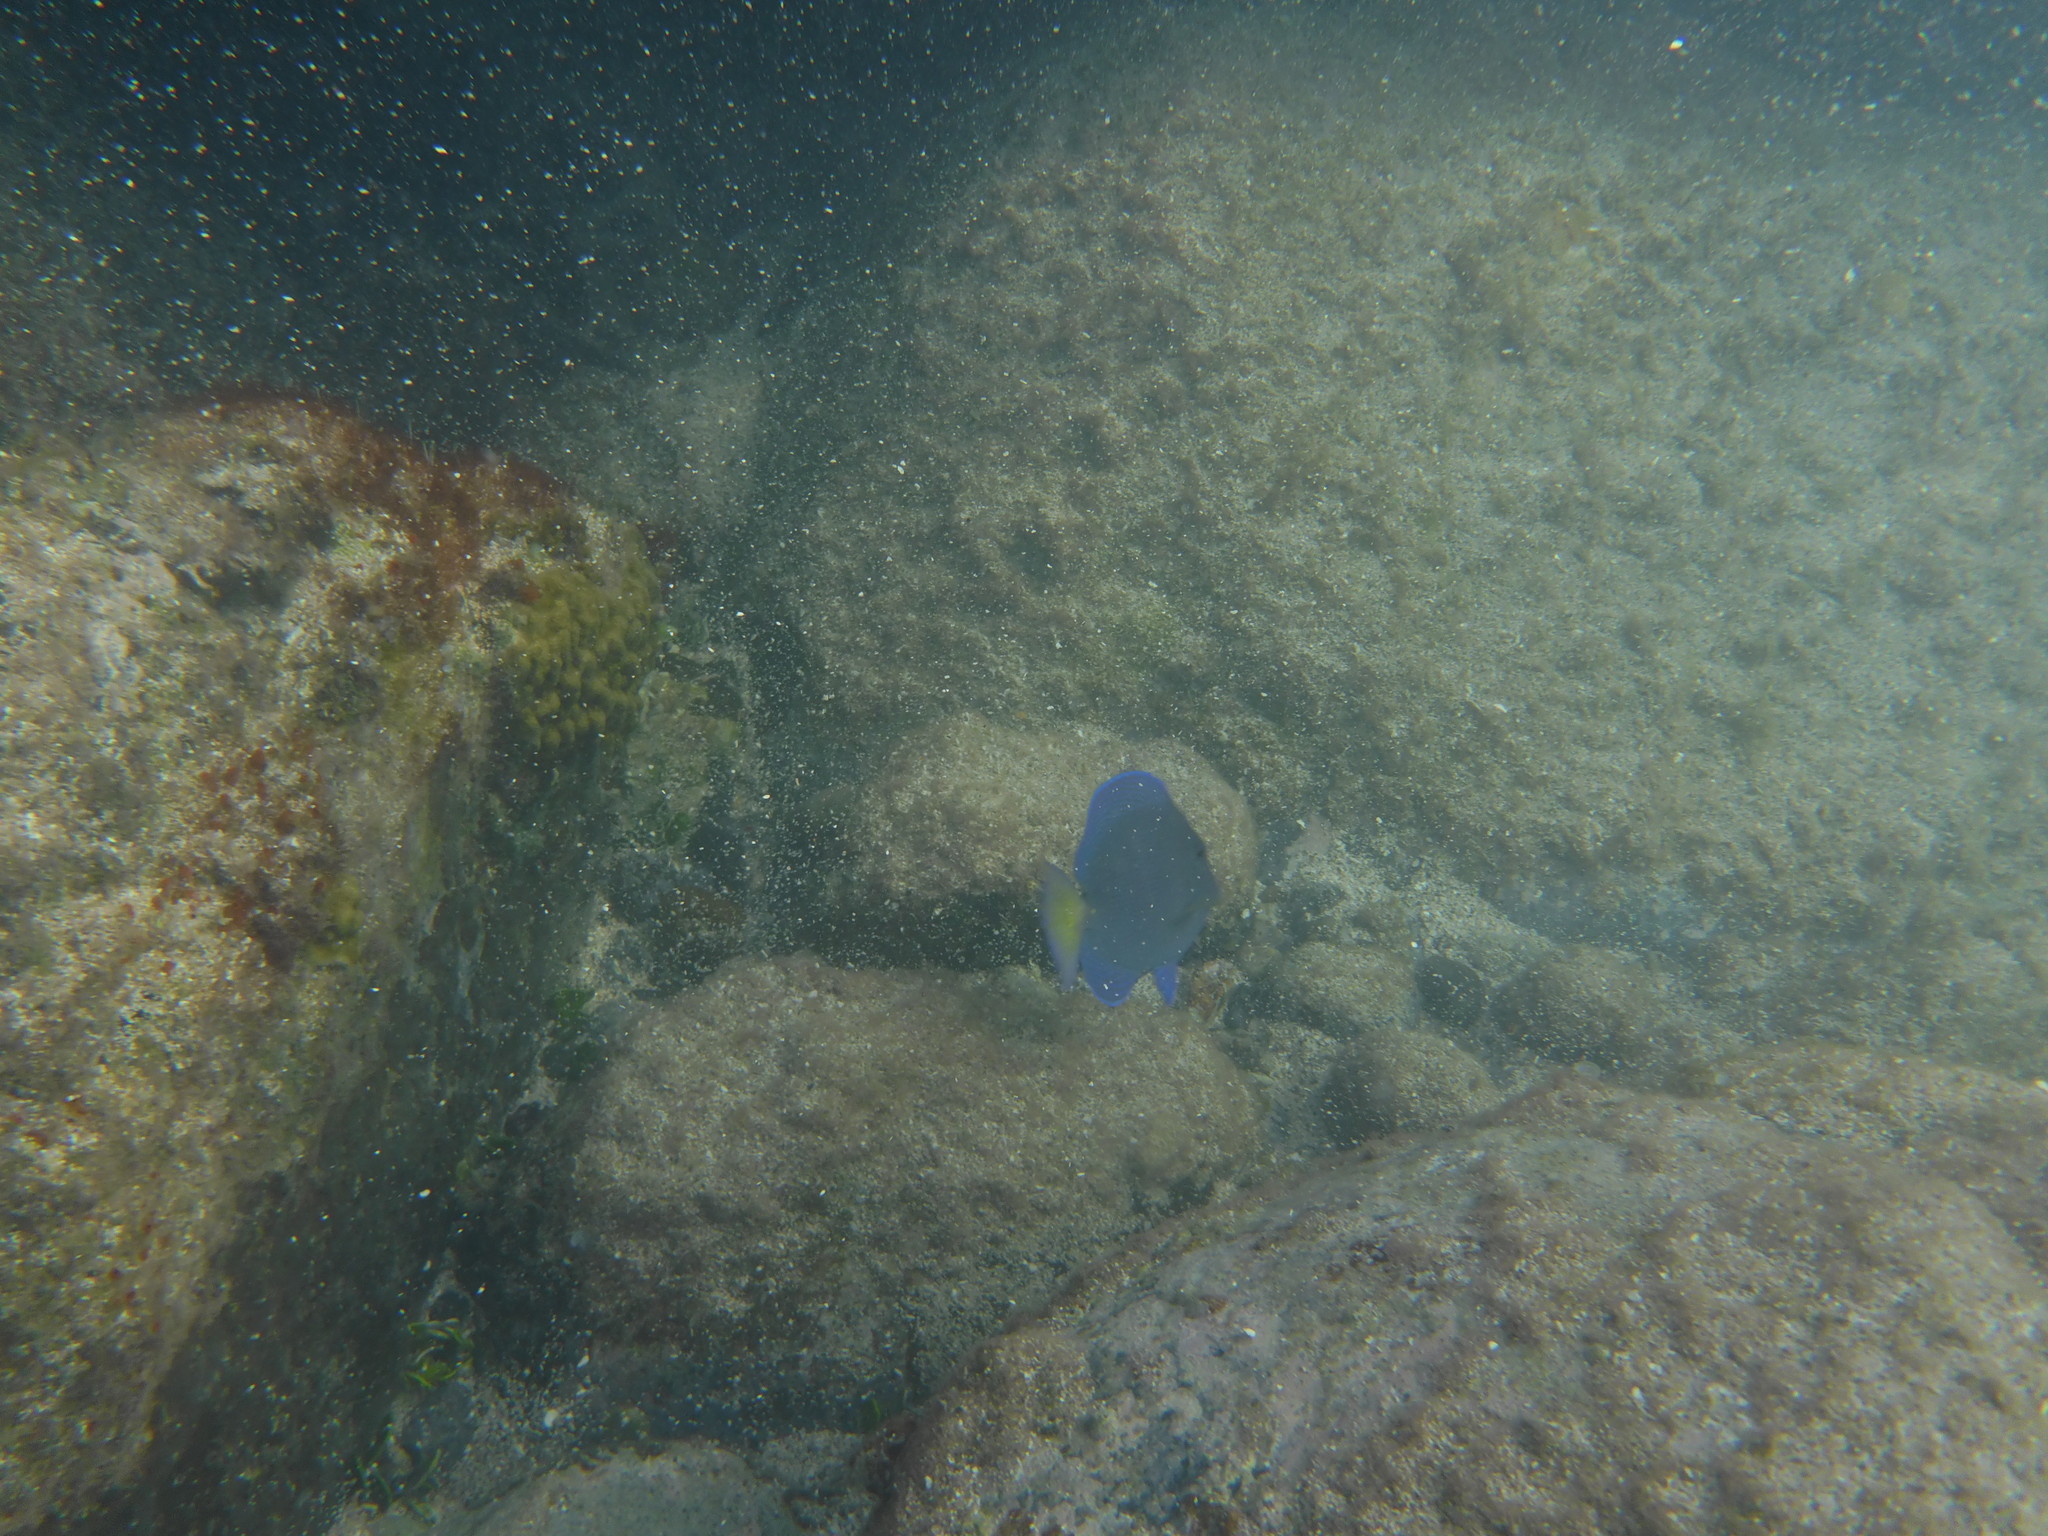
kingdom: Animalia
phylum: Chordata
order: Perciformes
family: Acanthuridae
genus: Acanthurus
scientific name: Acanthurus coeruleus
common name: Blue tang
